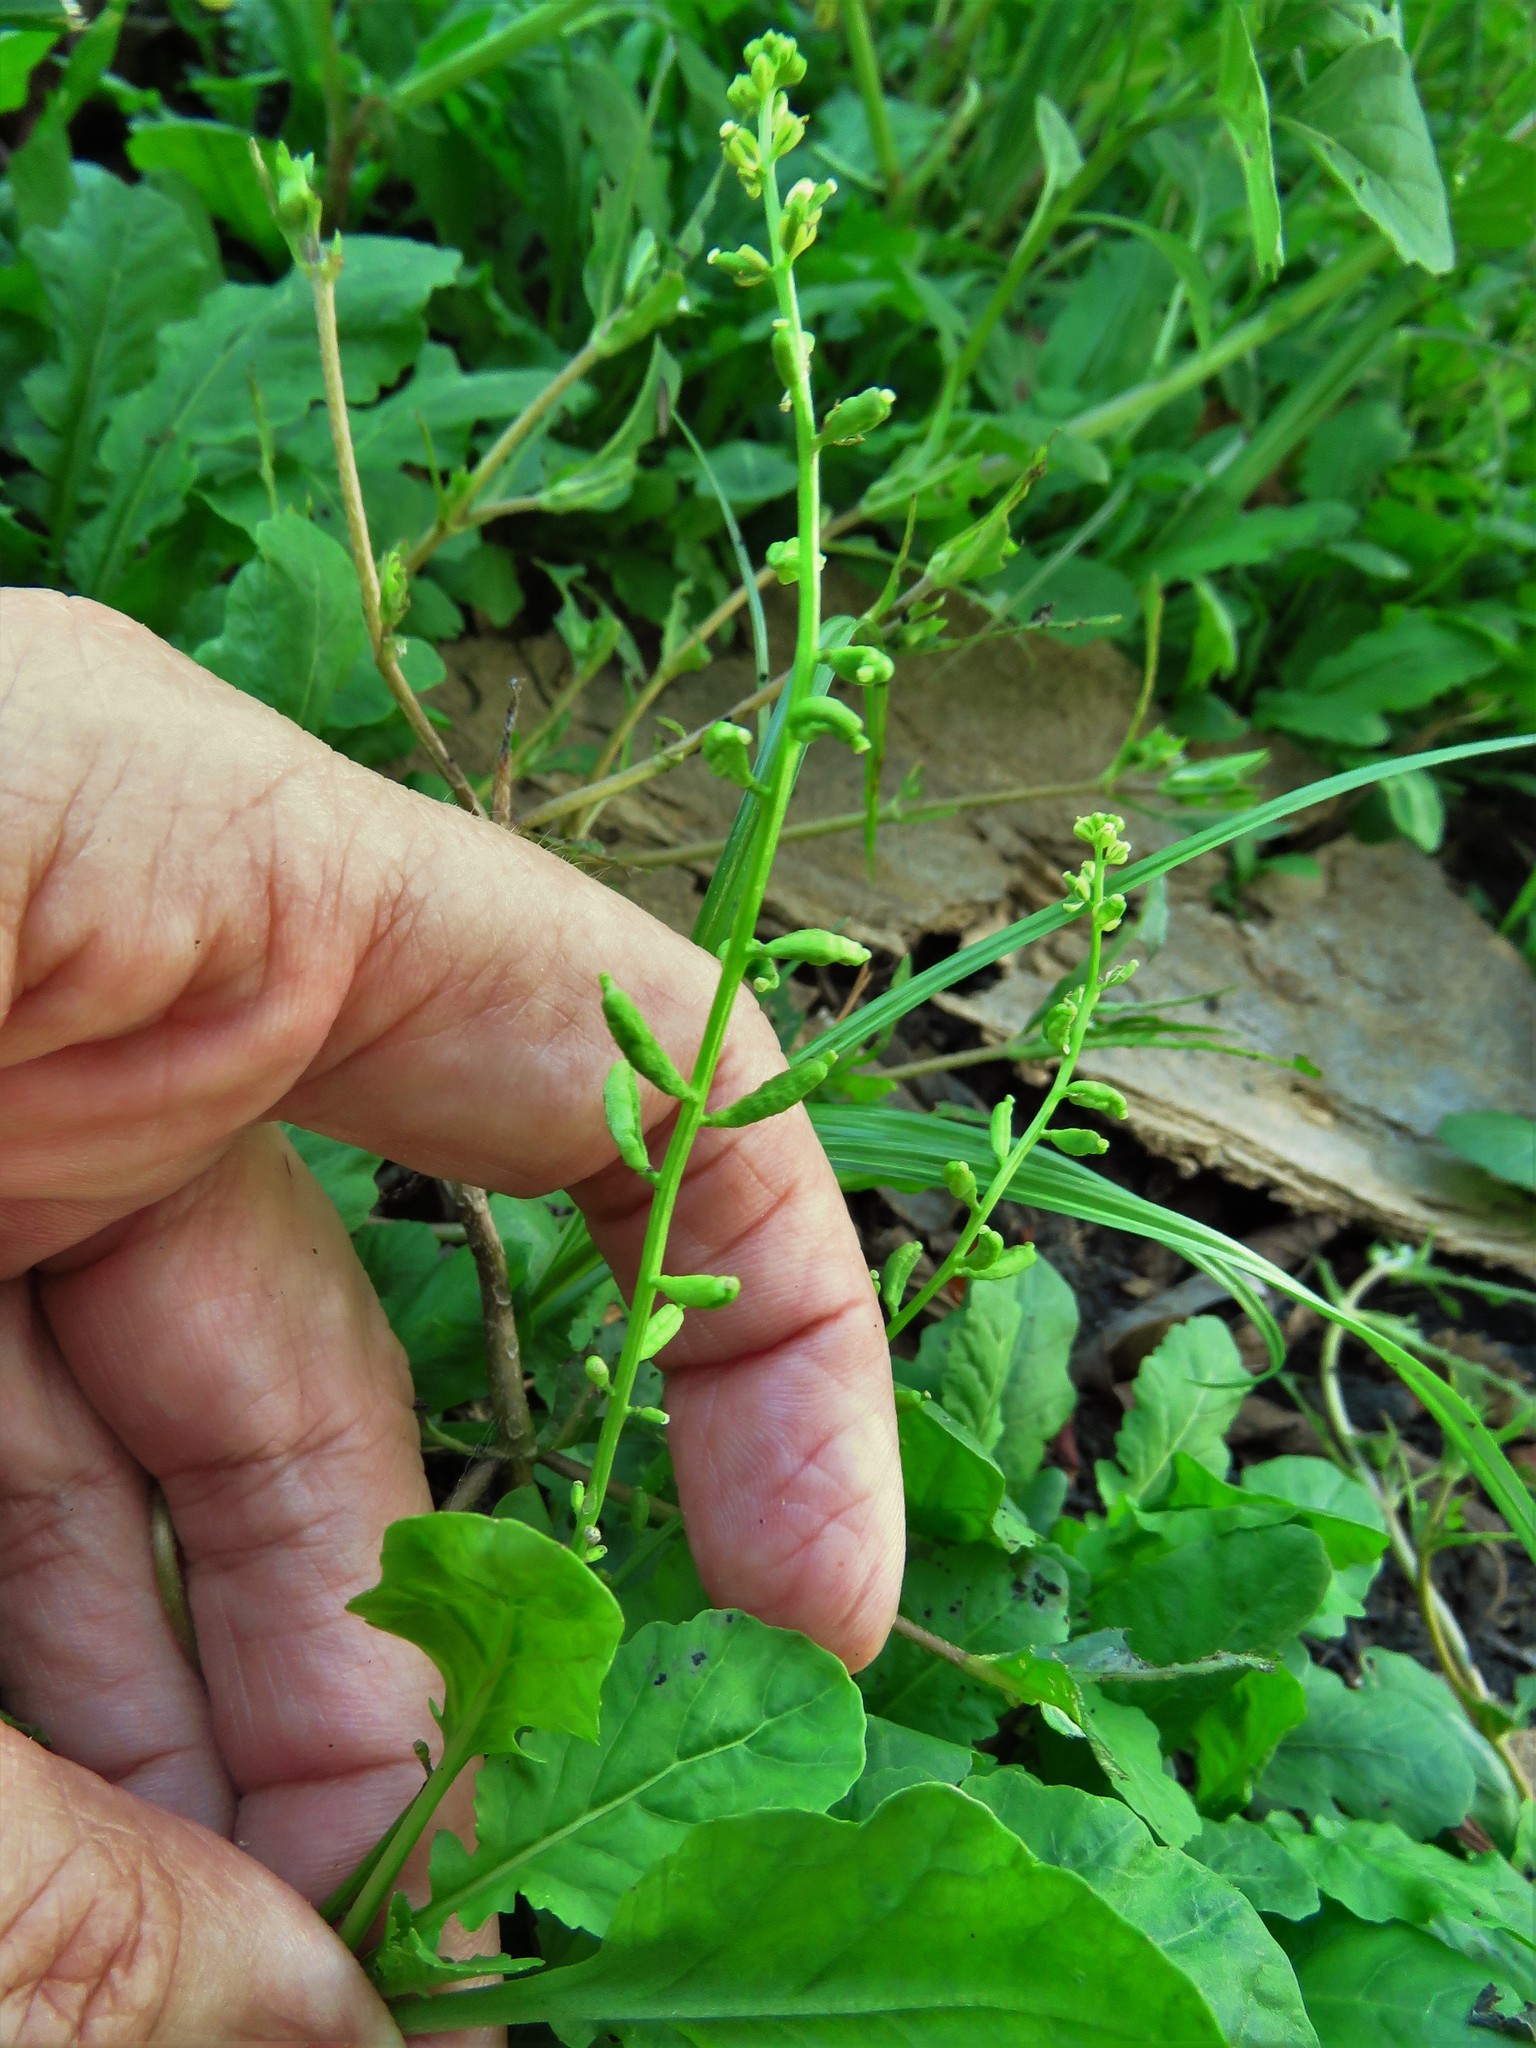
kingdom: Plantae
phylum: Tracheophyta
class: Magnoliopsida
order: Brassicales
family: Brassicaceae
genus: Rorippa
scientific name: Rorippa sessiliflora
